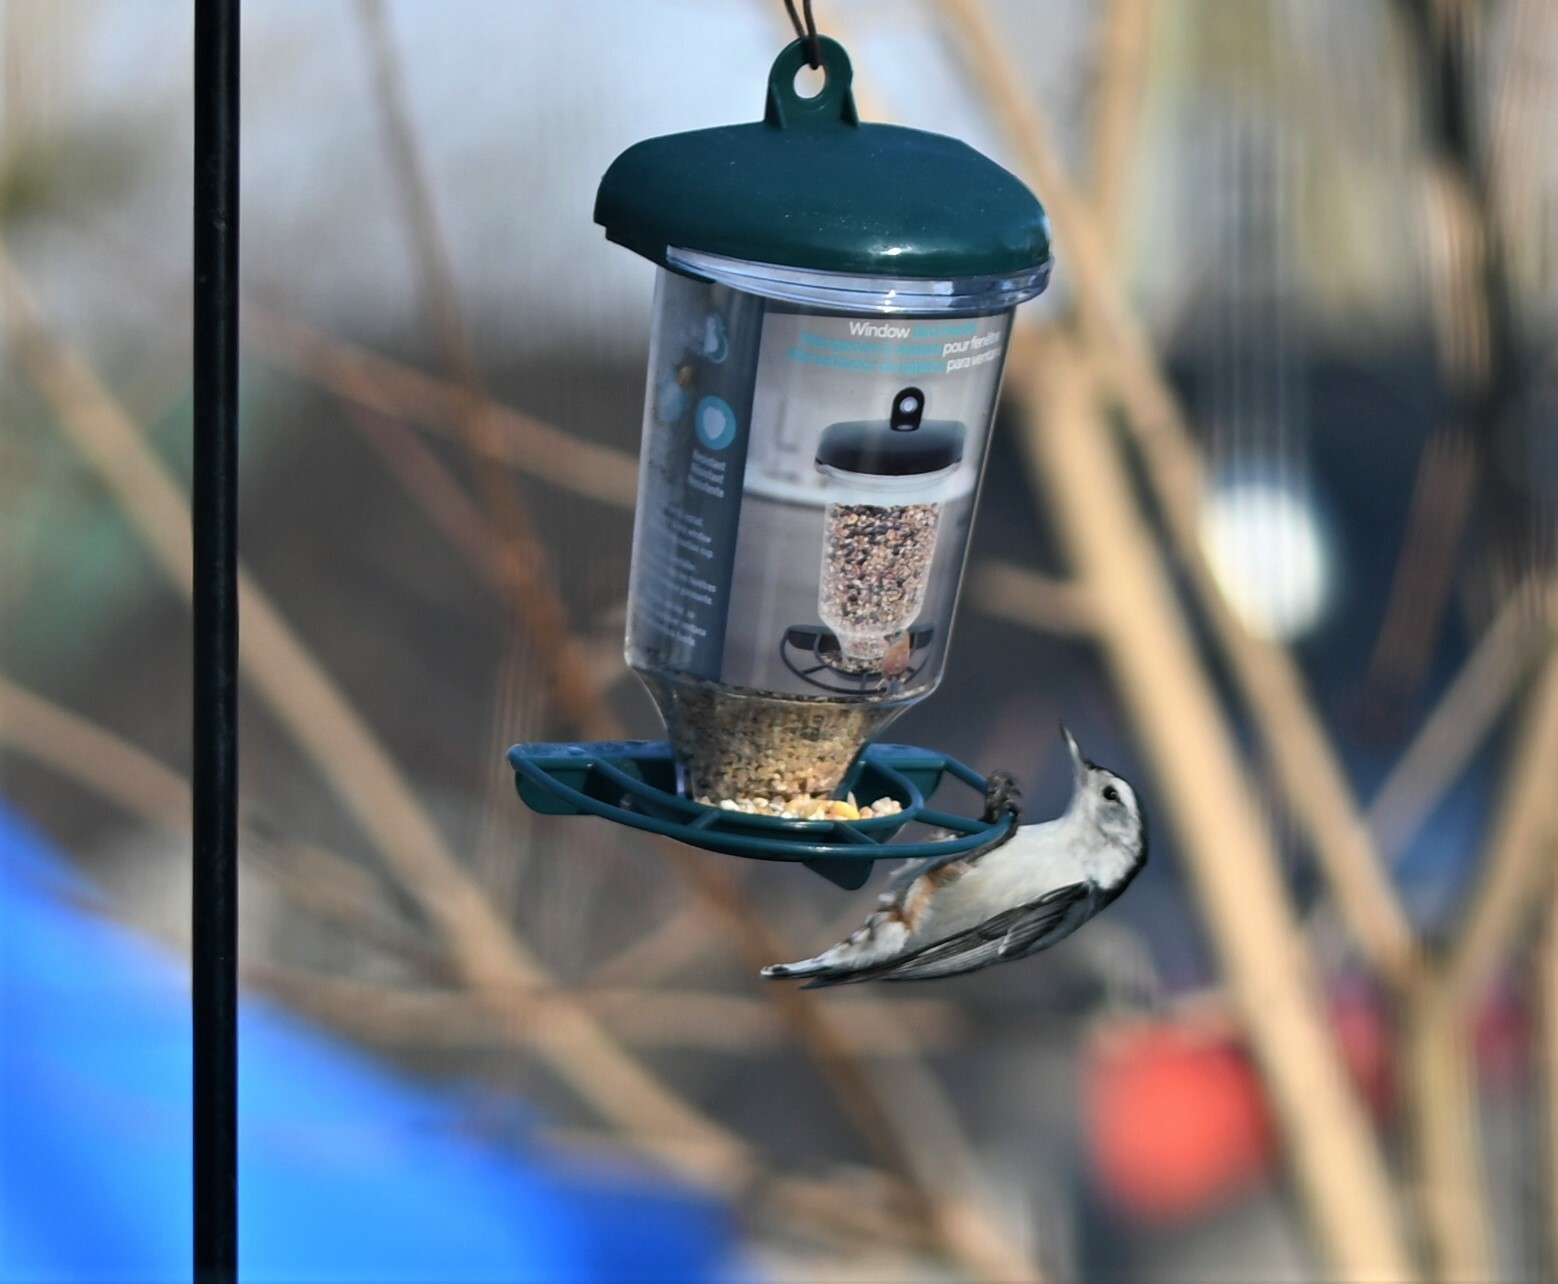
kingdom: Animalia
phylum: Chordata
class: Aves
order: Passeriformes
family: Sittidae
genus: Sitta
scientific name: Sitta carolinensis
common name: White-breasted nuthatch
